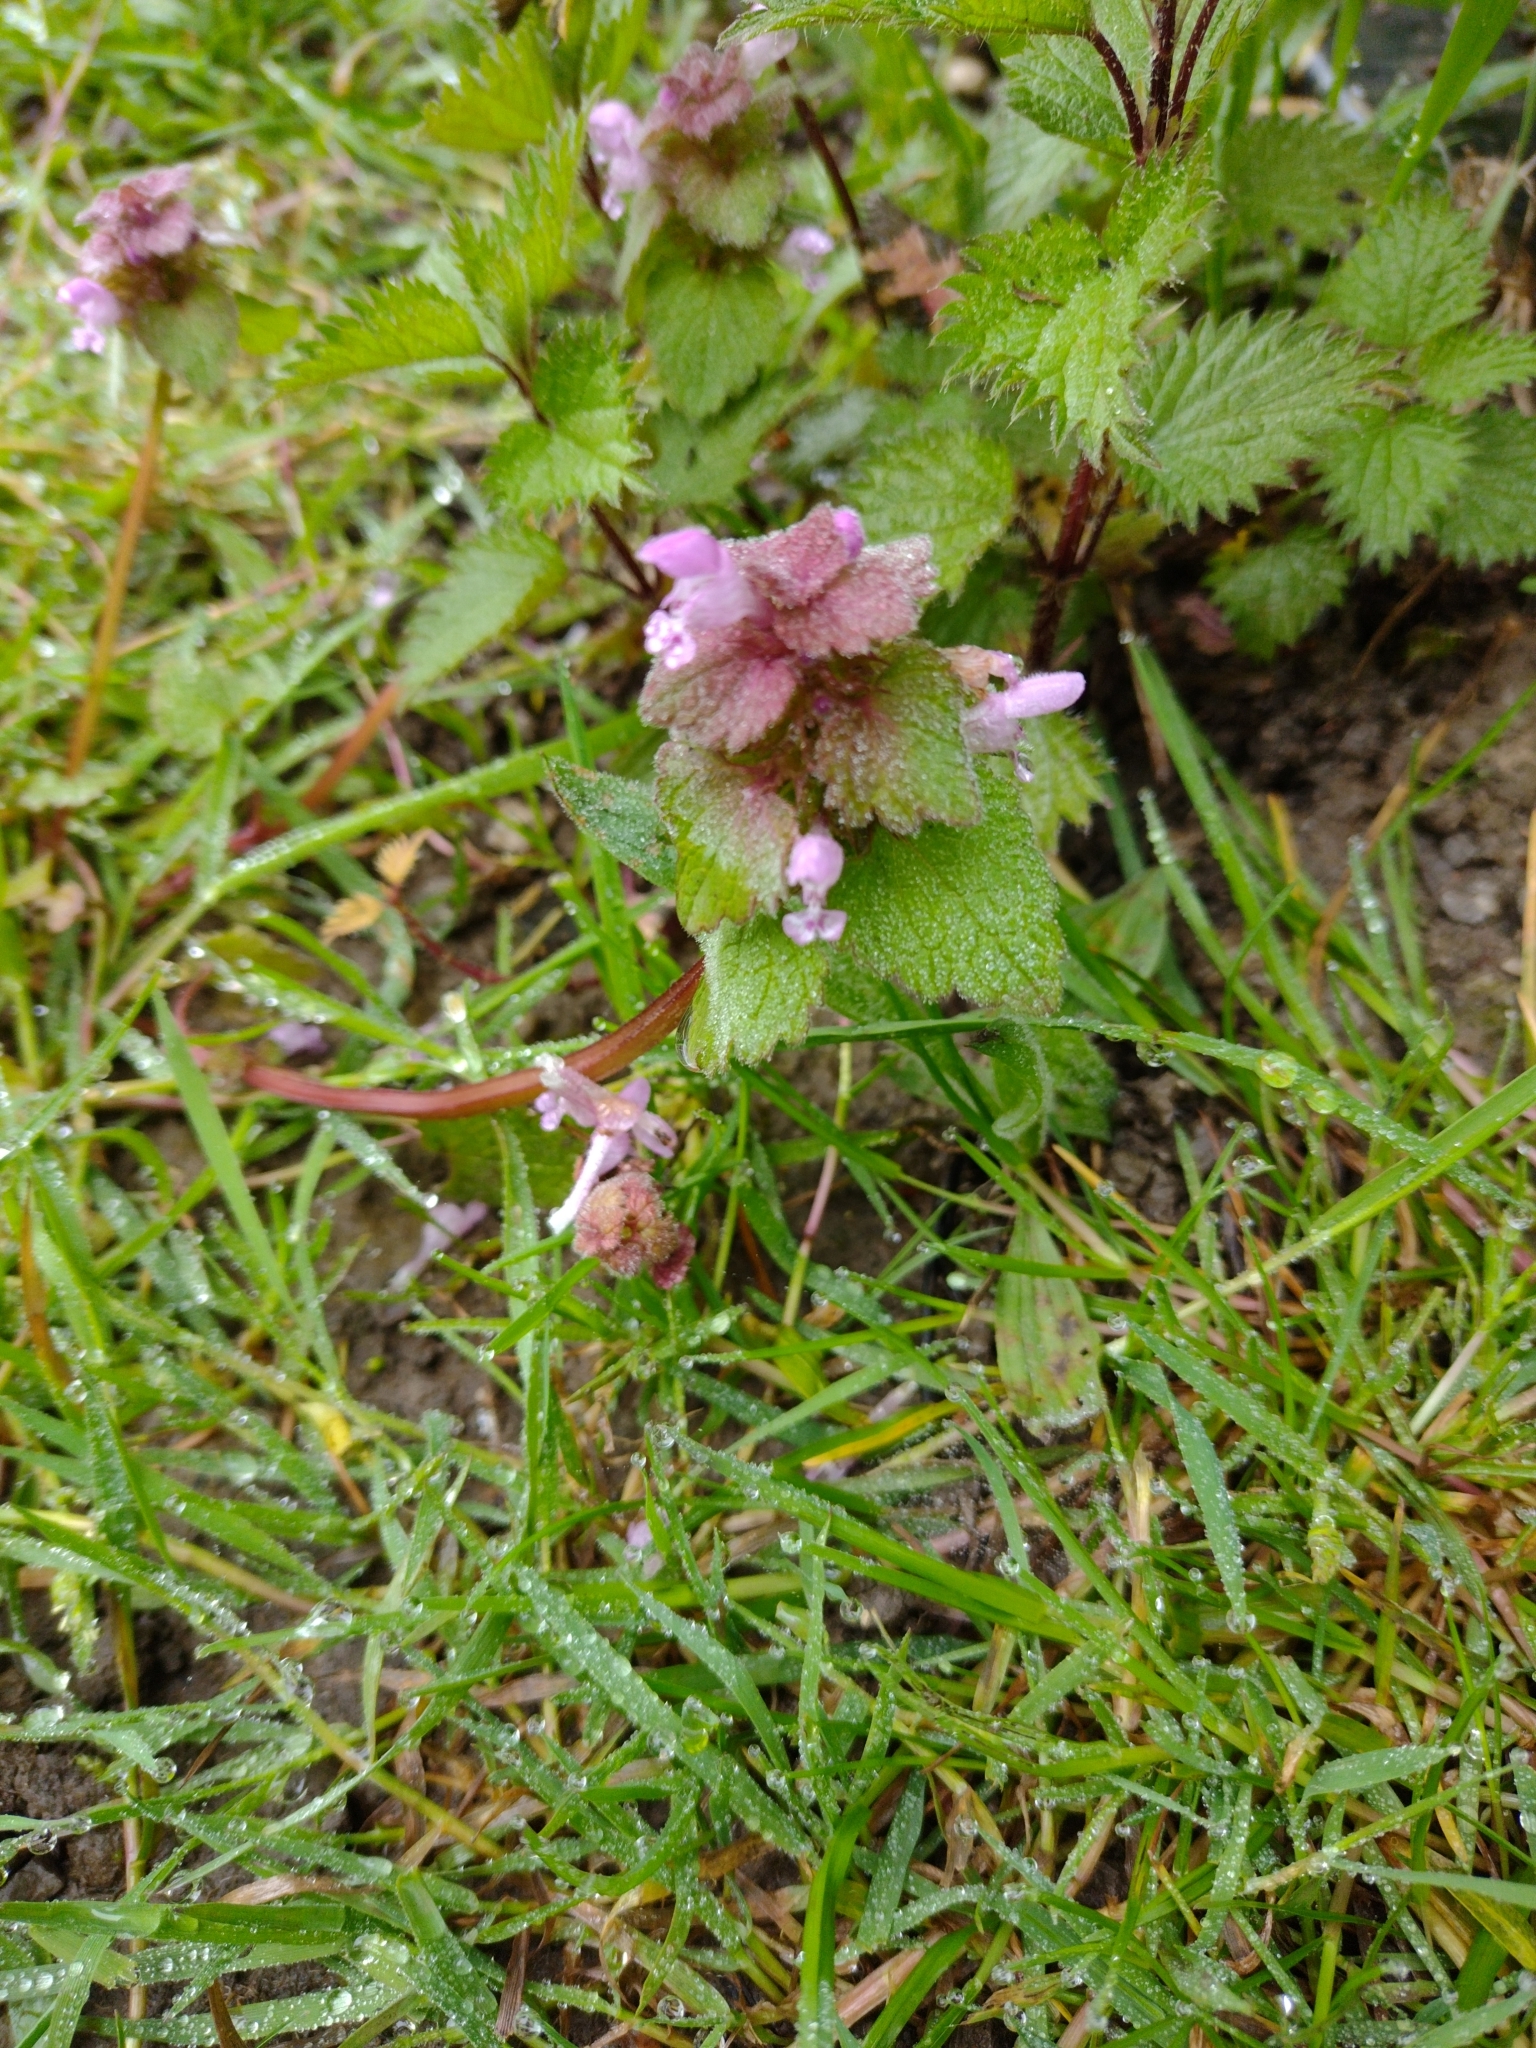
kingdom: Plantae
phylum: Tracheophyta
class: Magnoliopsida
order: Lamiales
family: Lamiaceae
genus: Lamium
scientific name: Lamium purpureum
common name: Red dead-nettle
